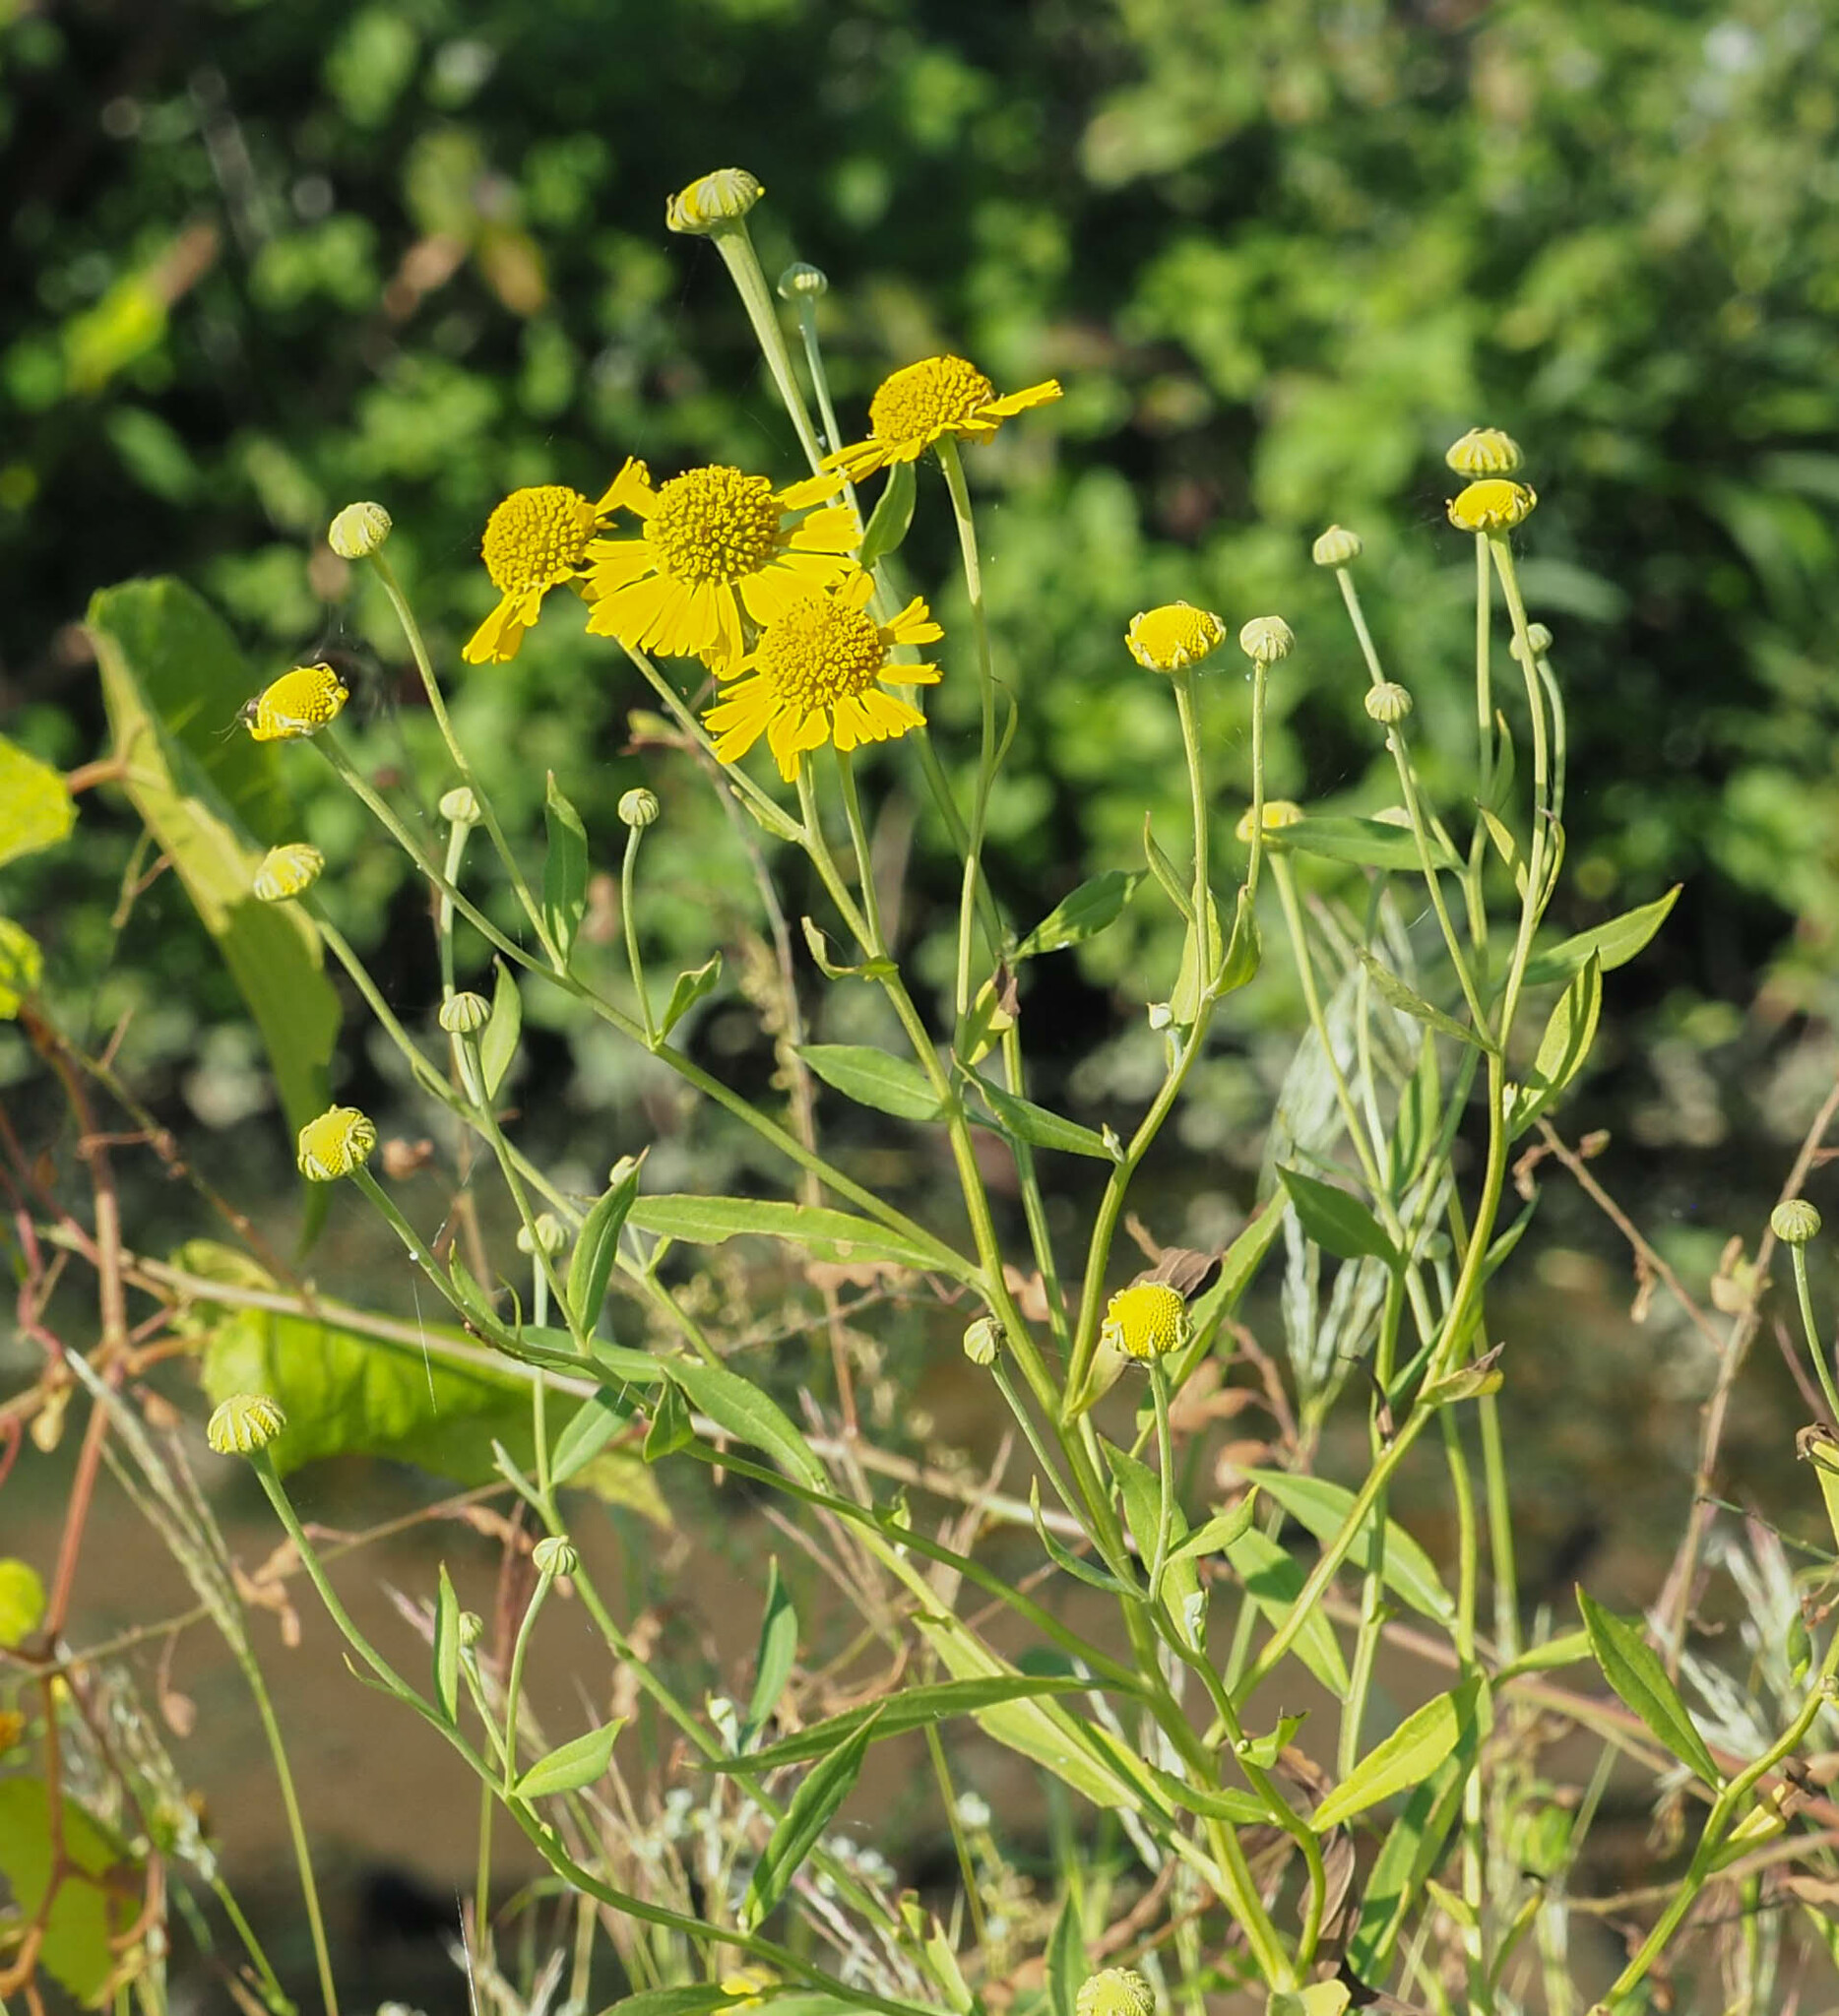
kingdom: Plantae
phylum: Tracheophyta
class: Magnoliopsida
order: Asterales
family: Asteraceae
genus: Helenium
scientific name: Helenium autumnale
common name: Sneezeweed
